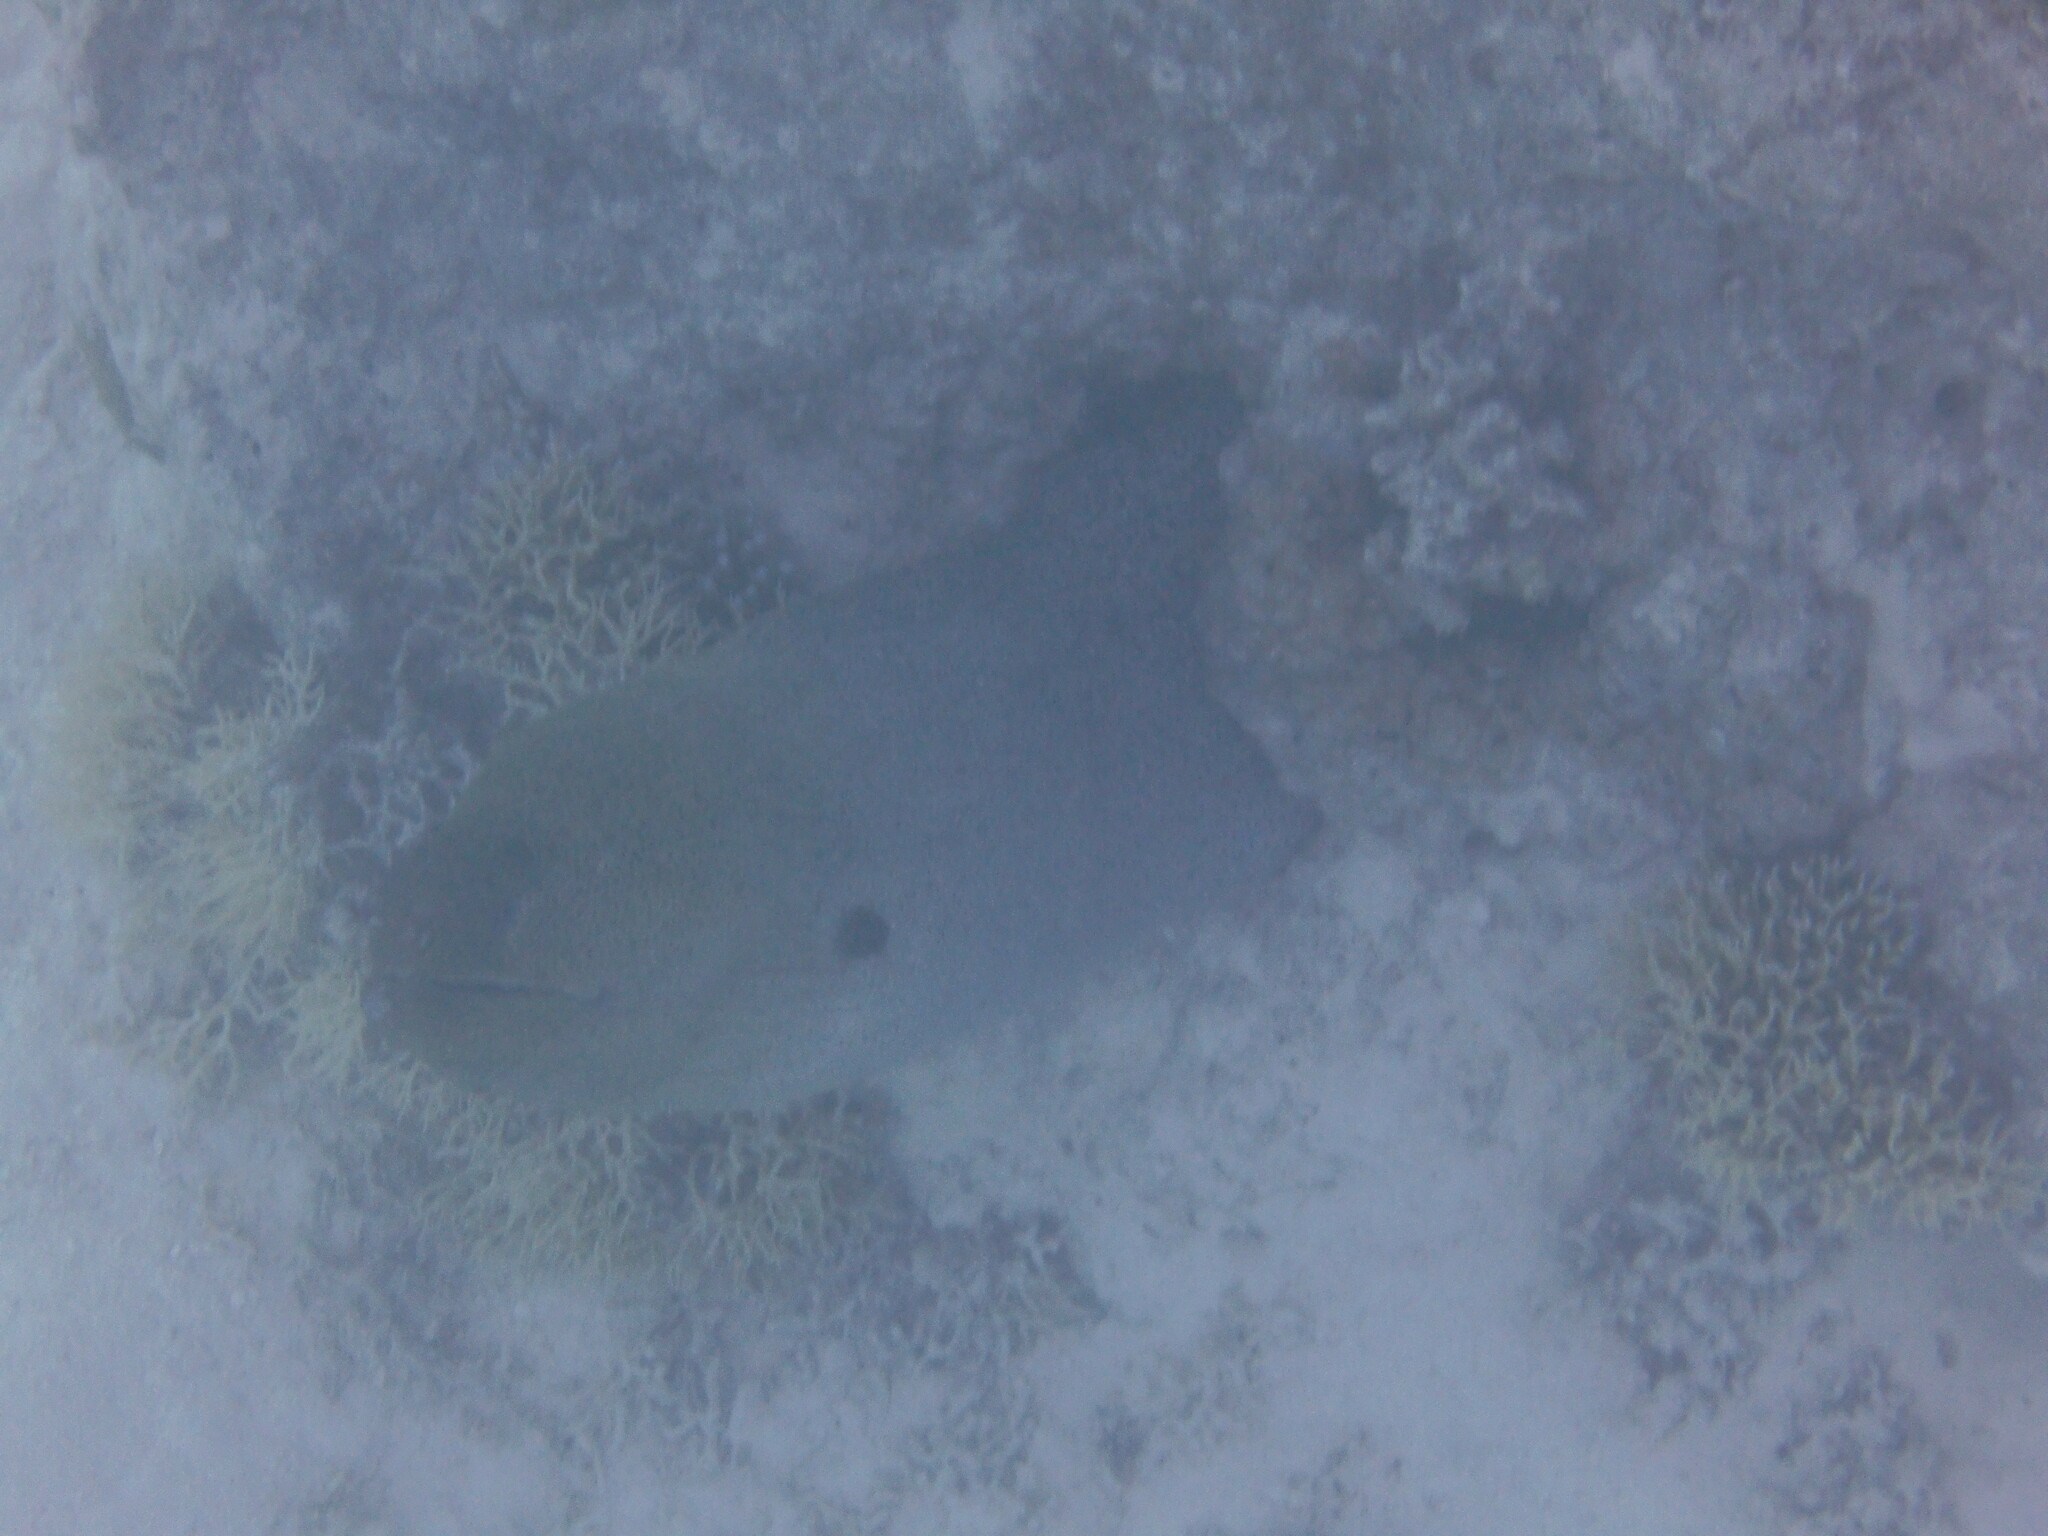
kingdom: Animalia
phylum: Chordata
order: Anguilliformes
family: Muraenidae
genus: Gymnothorax
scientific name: Gymnothorax javanicus
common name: Giant moray
